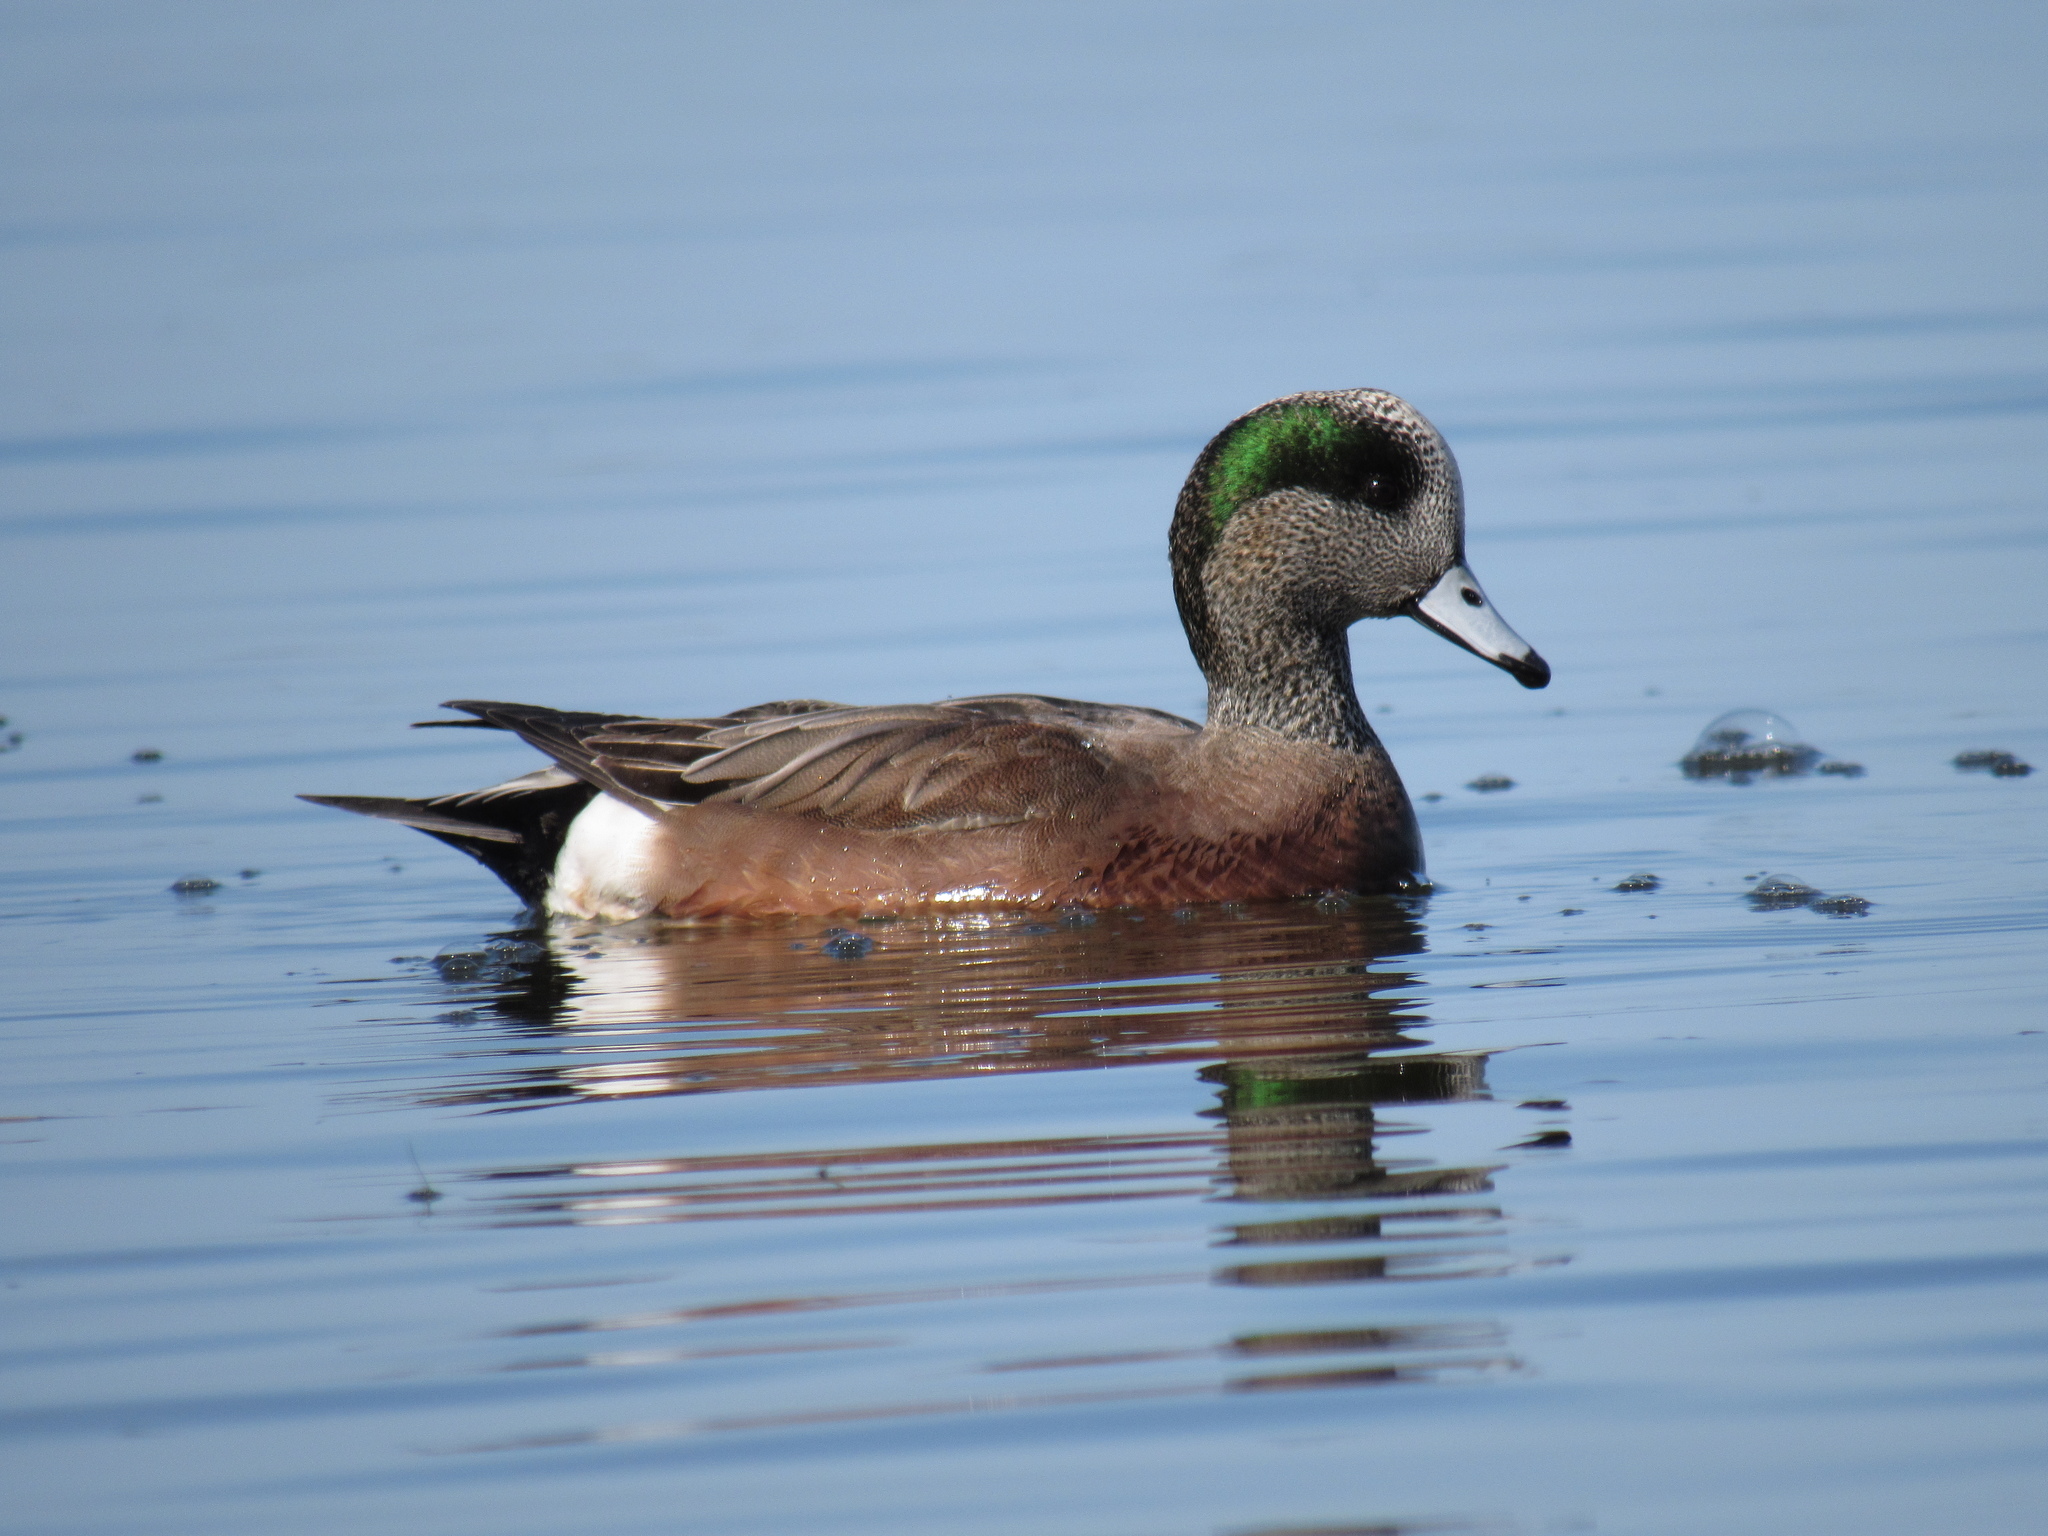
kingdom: Animalia
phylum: Chordata
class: Aves
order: Anseriformes
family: Anatidae
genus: Mareca
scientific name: Mareca americana
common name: American wigeon
